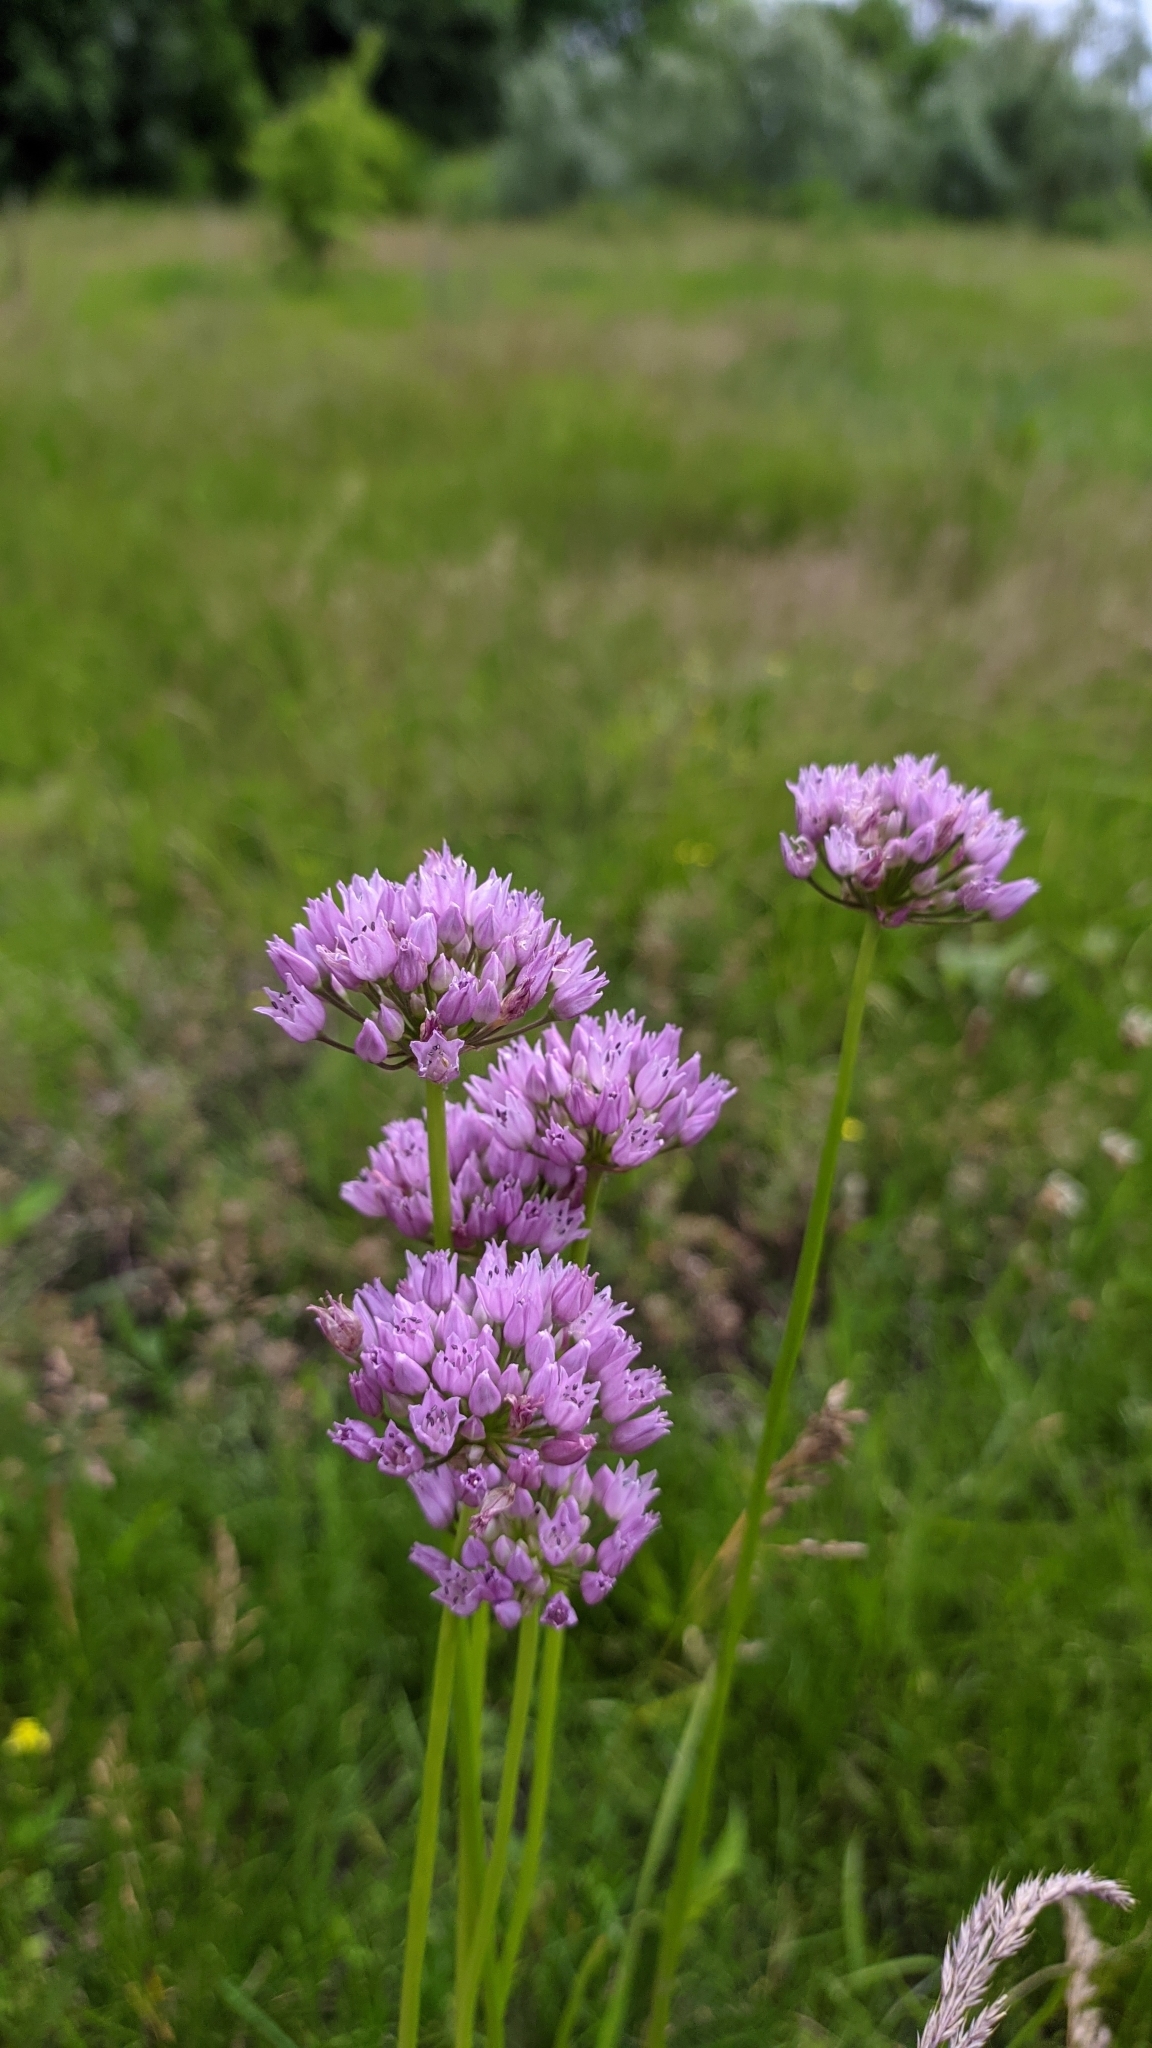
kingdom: Plantae
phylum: Tracheophyta
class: Liliopsida
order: Asparagales
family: Amaryllidaceae
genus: Allium
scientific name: Allium angulosum
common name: Mouse garlic
